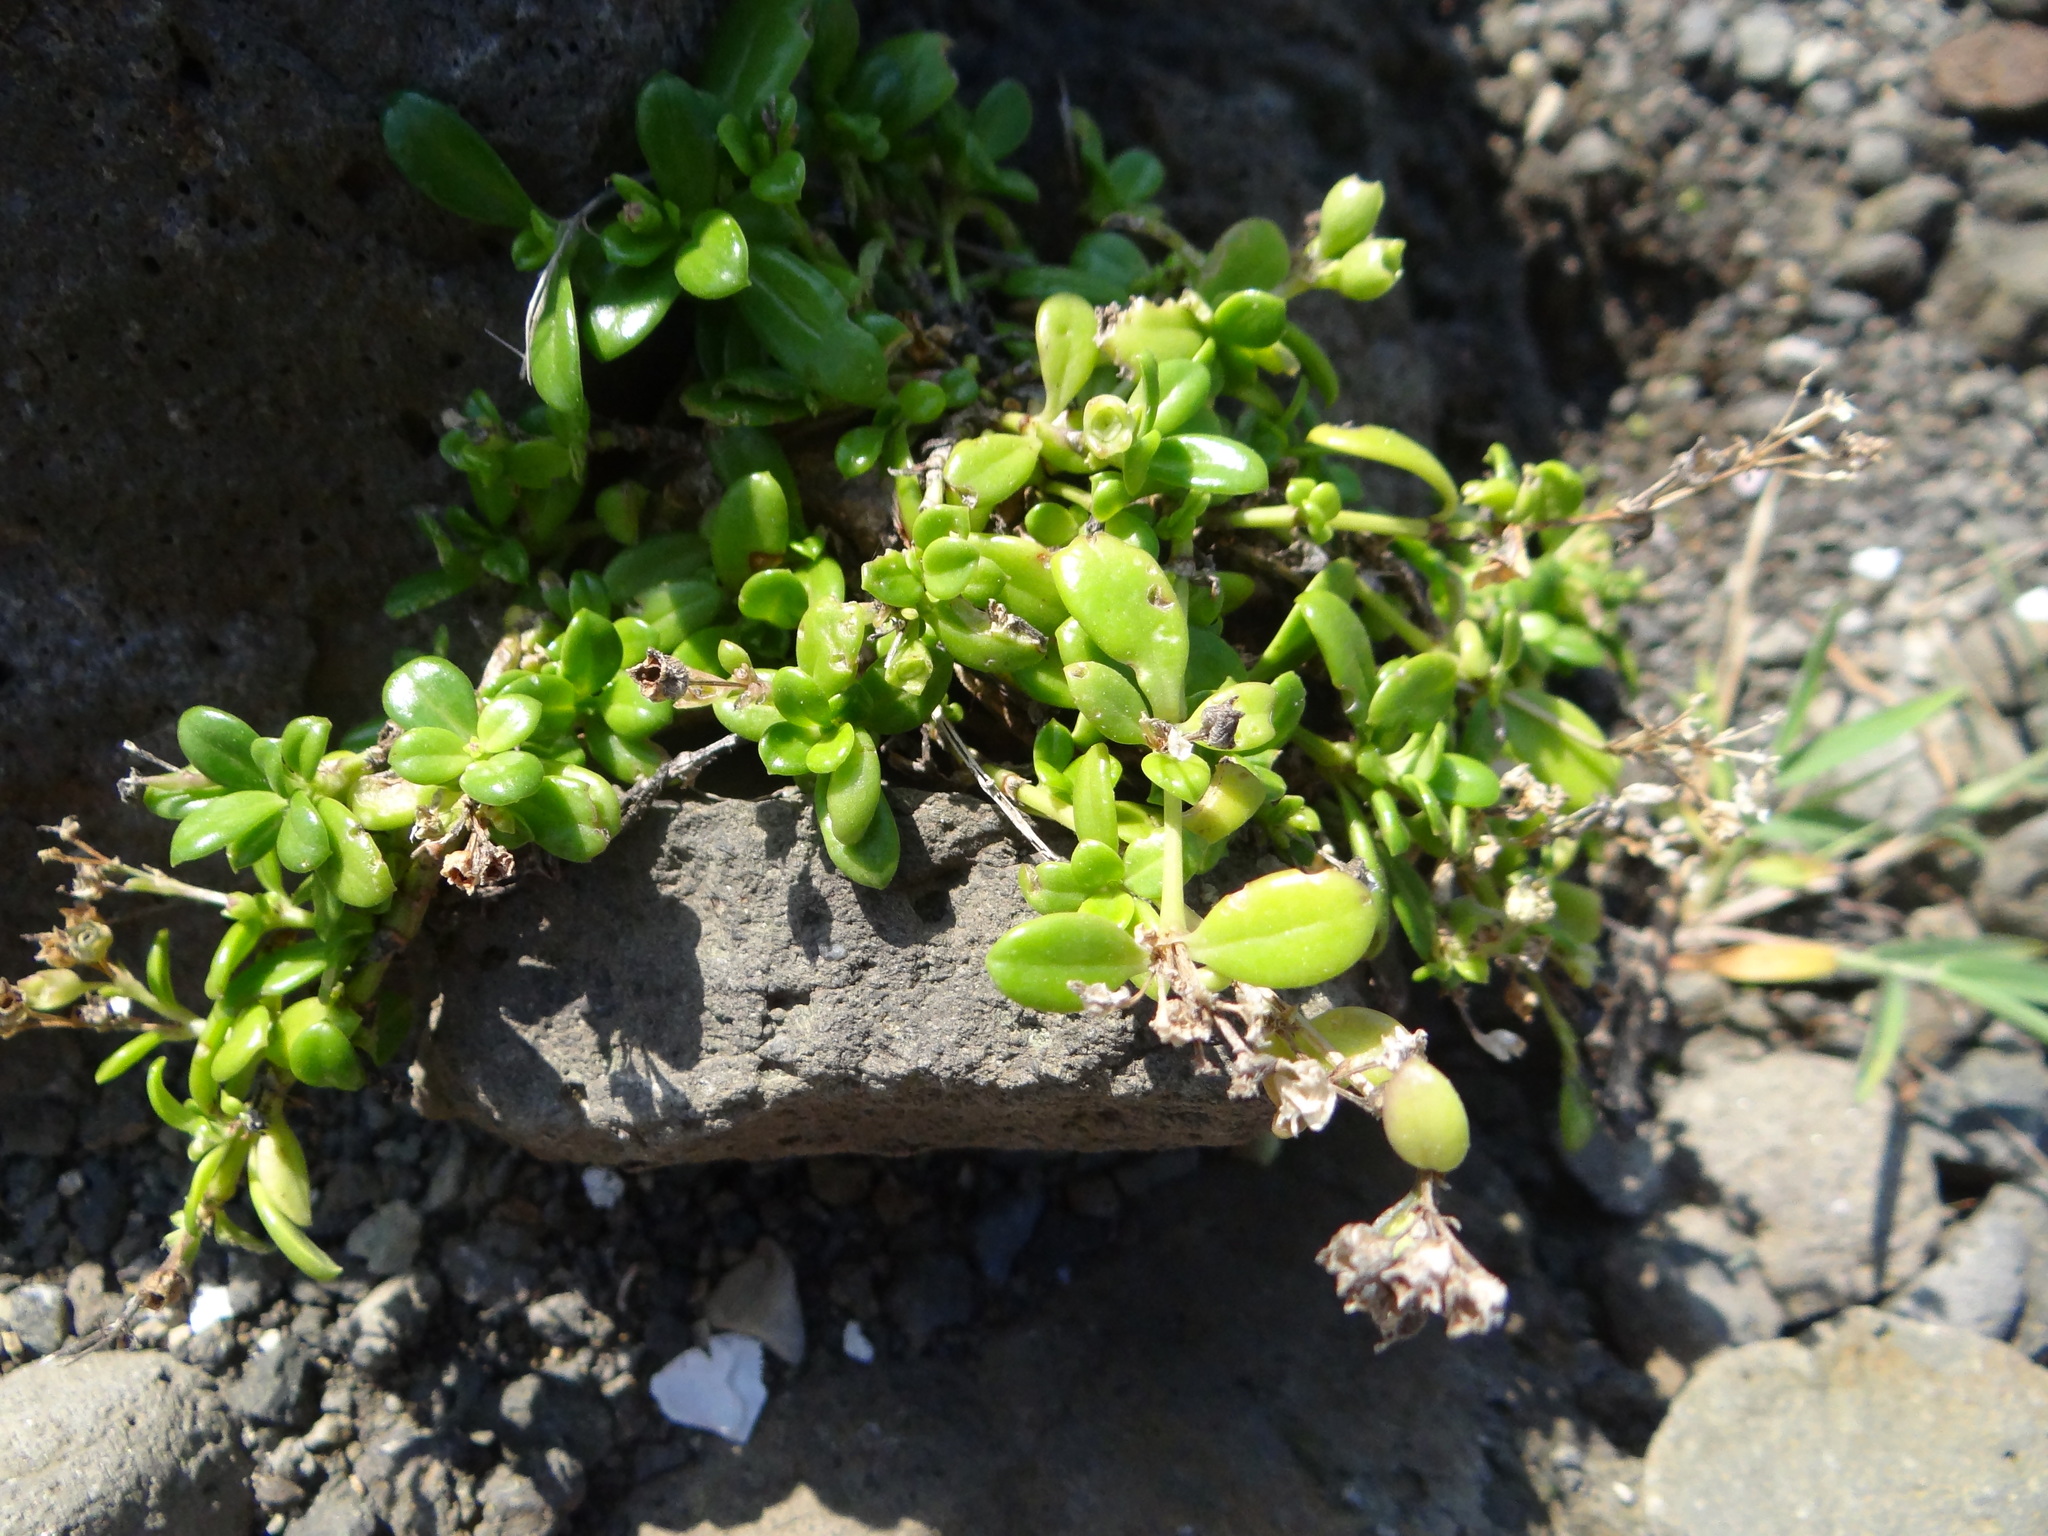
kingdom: Plantae
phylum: Tracheophyta
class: Magnoliopsida
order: Gentianales
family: Rubiaceae
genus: Leptopetalum
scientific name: Leptopetalum strigulosum
